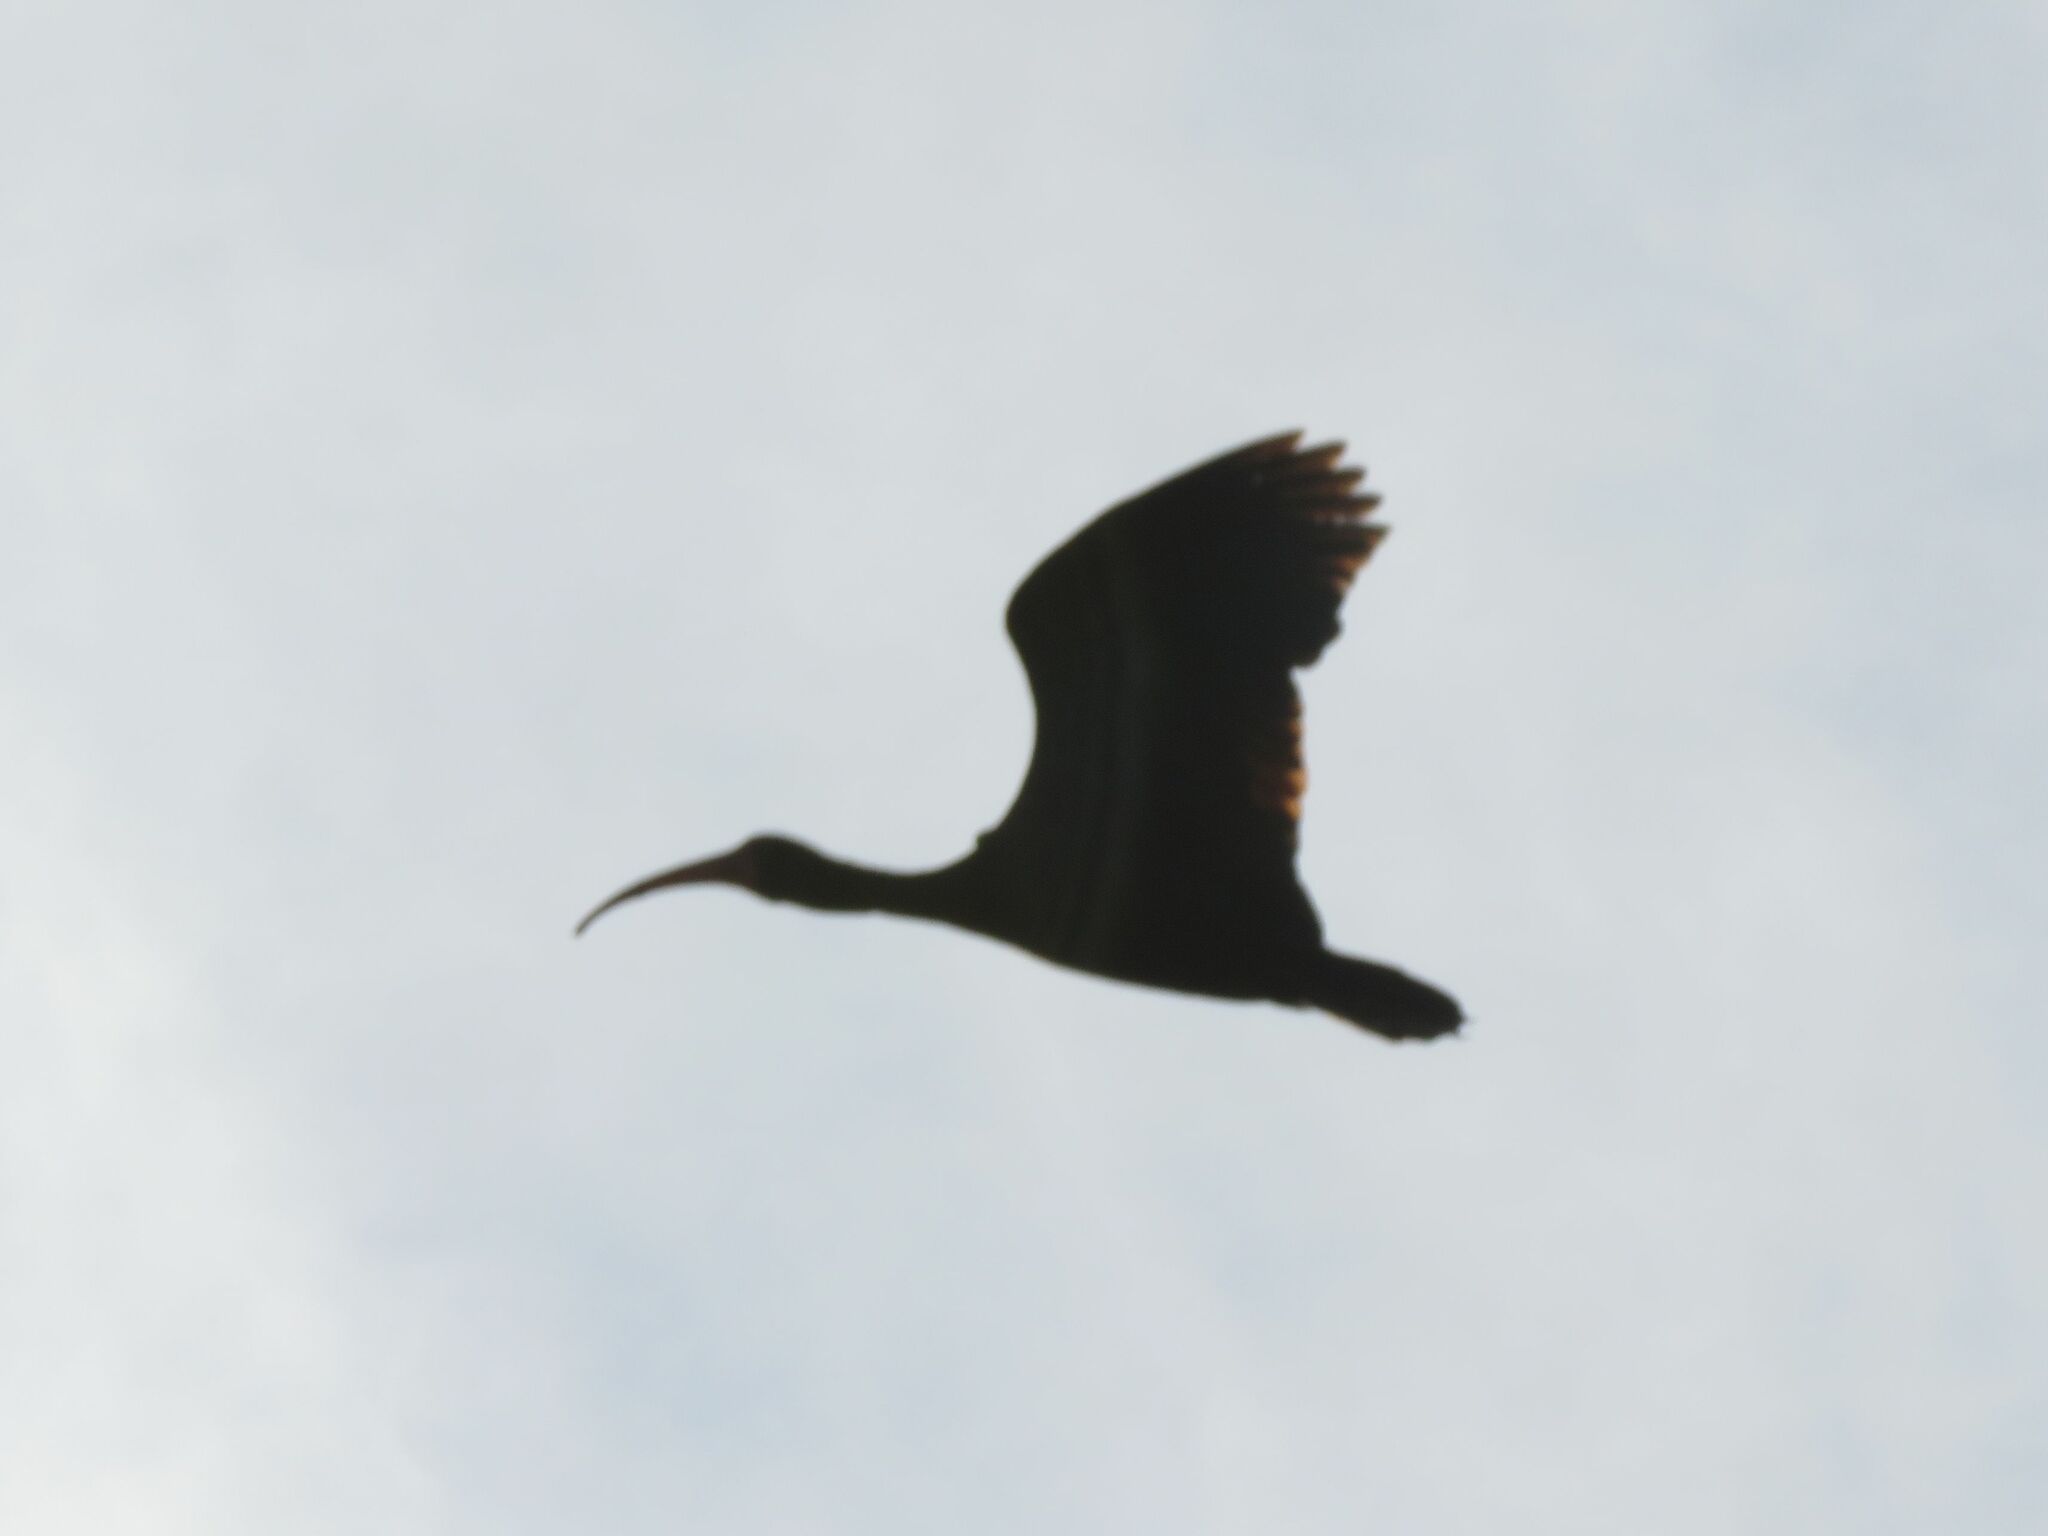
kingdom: Animalia
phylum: Chordata
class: Aves
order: Pelecaniformes
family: Threskiornithidae
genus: Phimosus
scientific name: Phimosus infuscatus
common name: Bare-faced ibis
